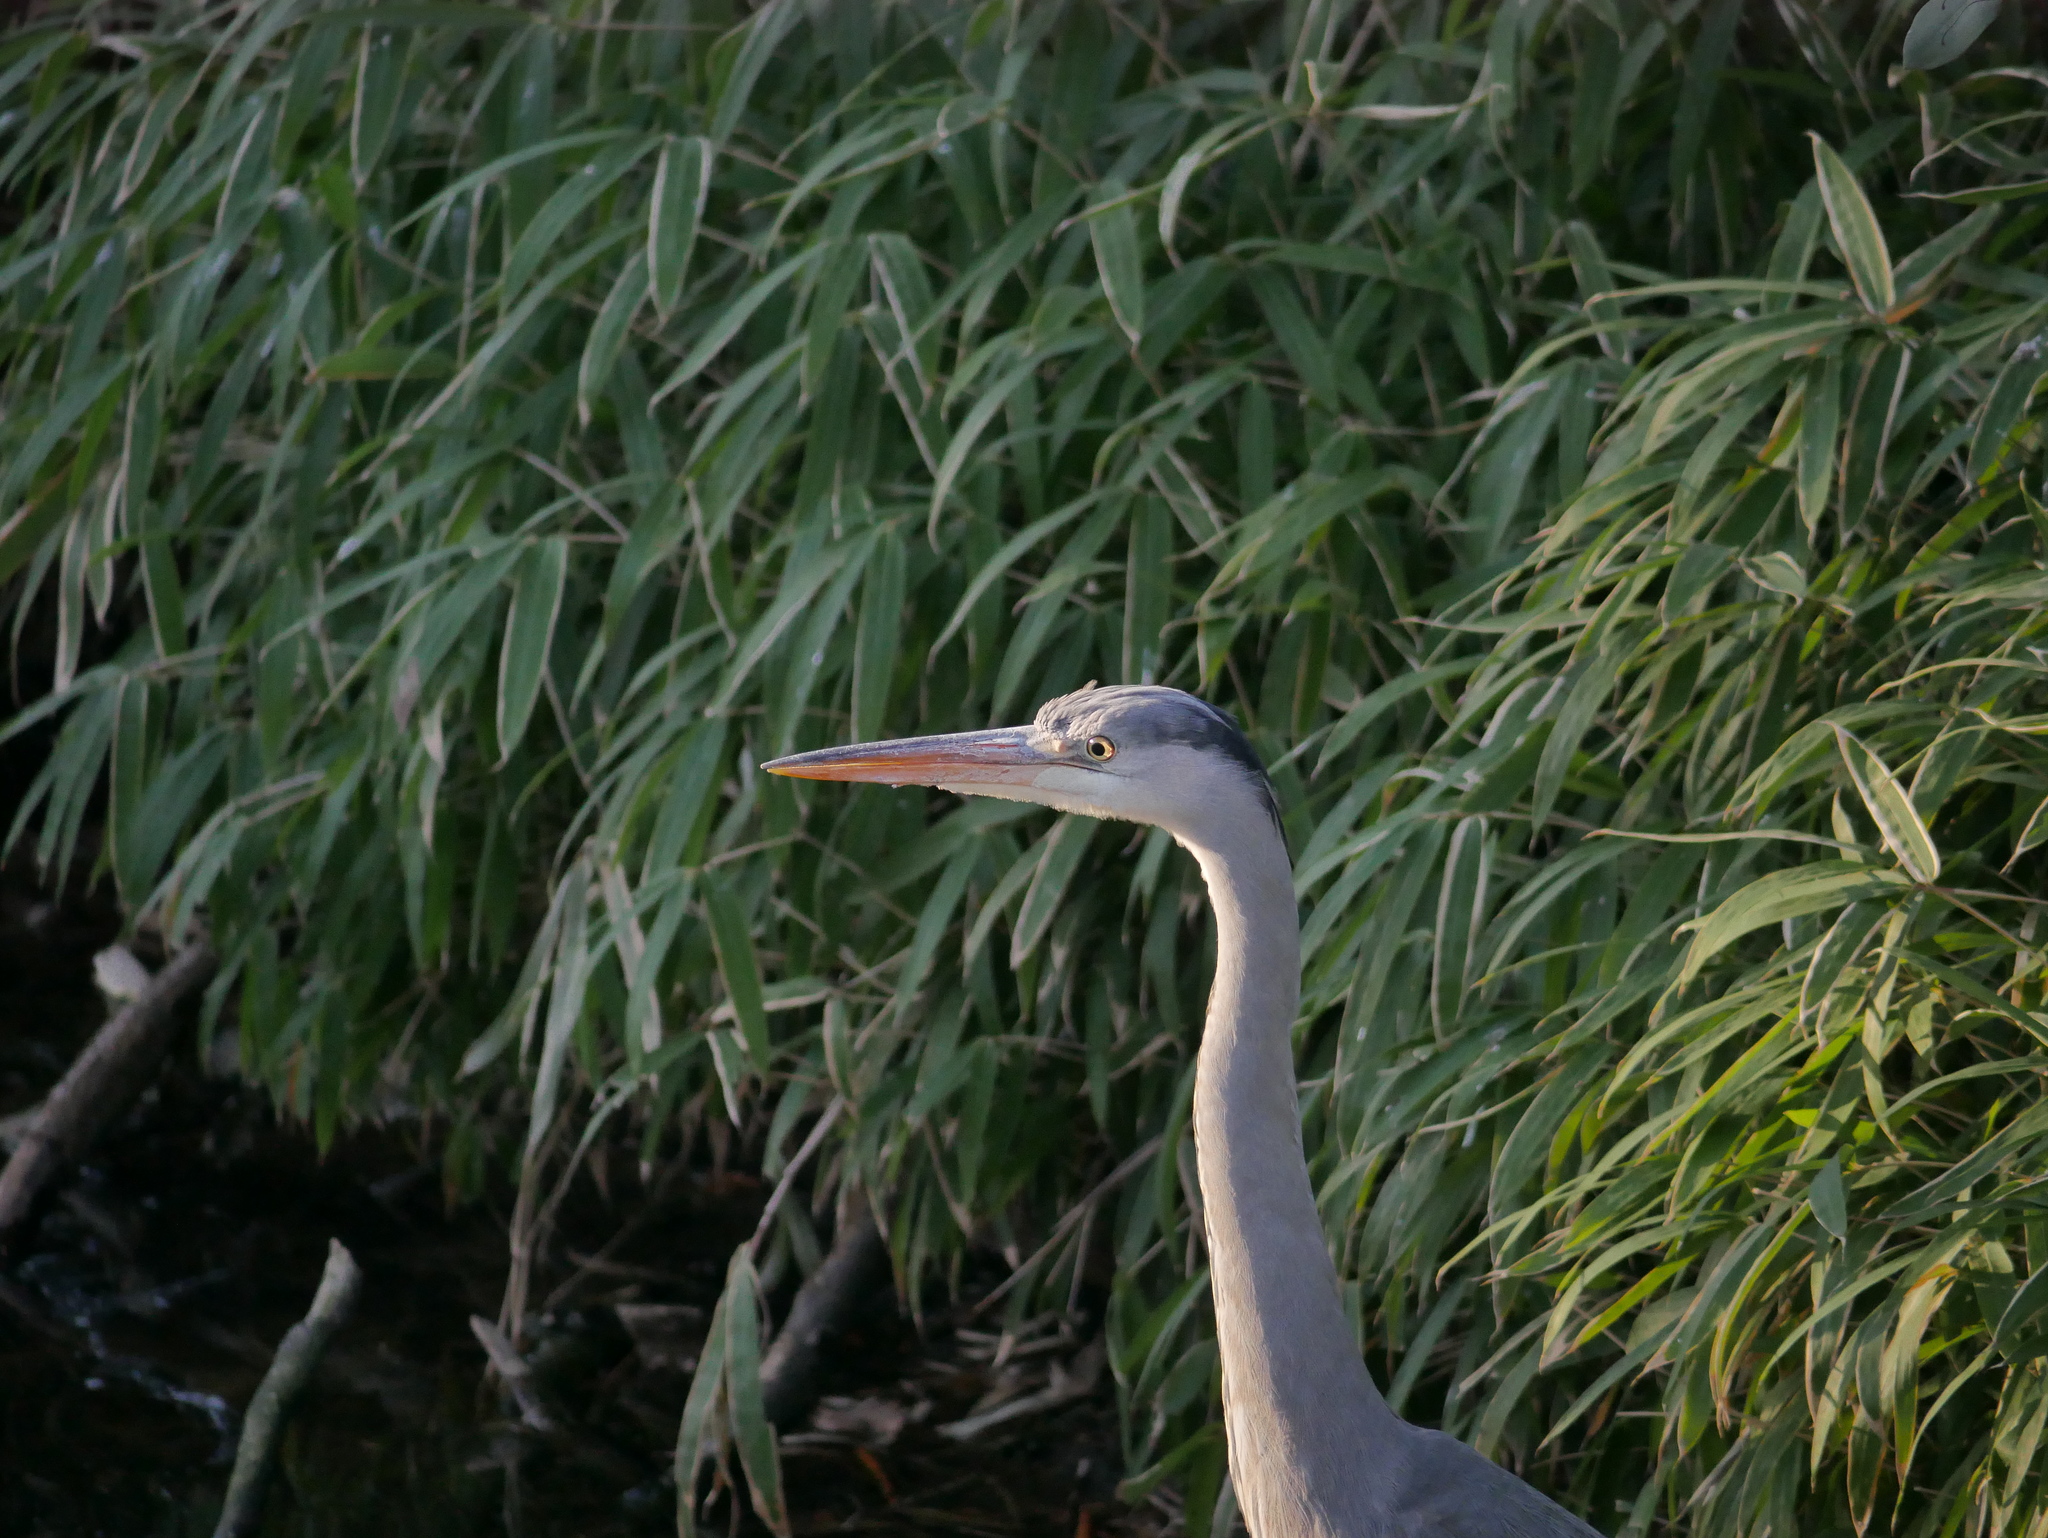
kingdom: Animalia
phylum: Chordata
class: Aves
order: Pelecaniformes
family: Ardeidae
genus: Ardea
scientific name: Ardea cinerea
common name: Grey heron
